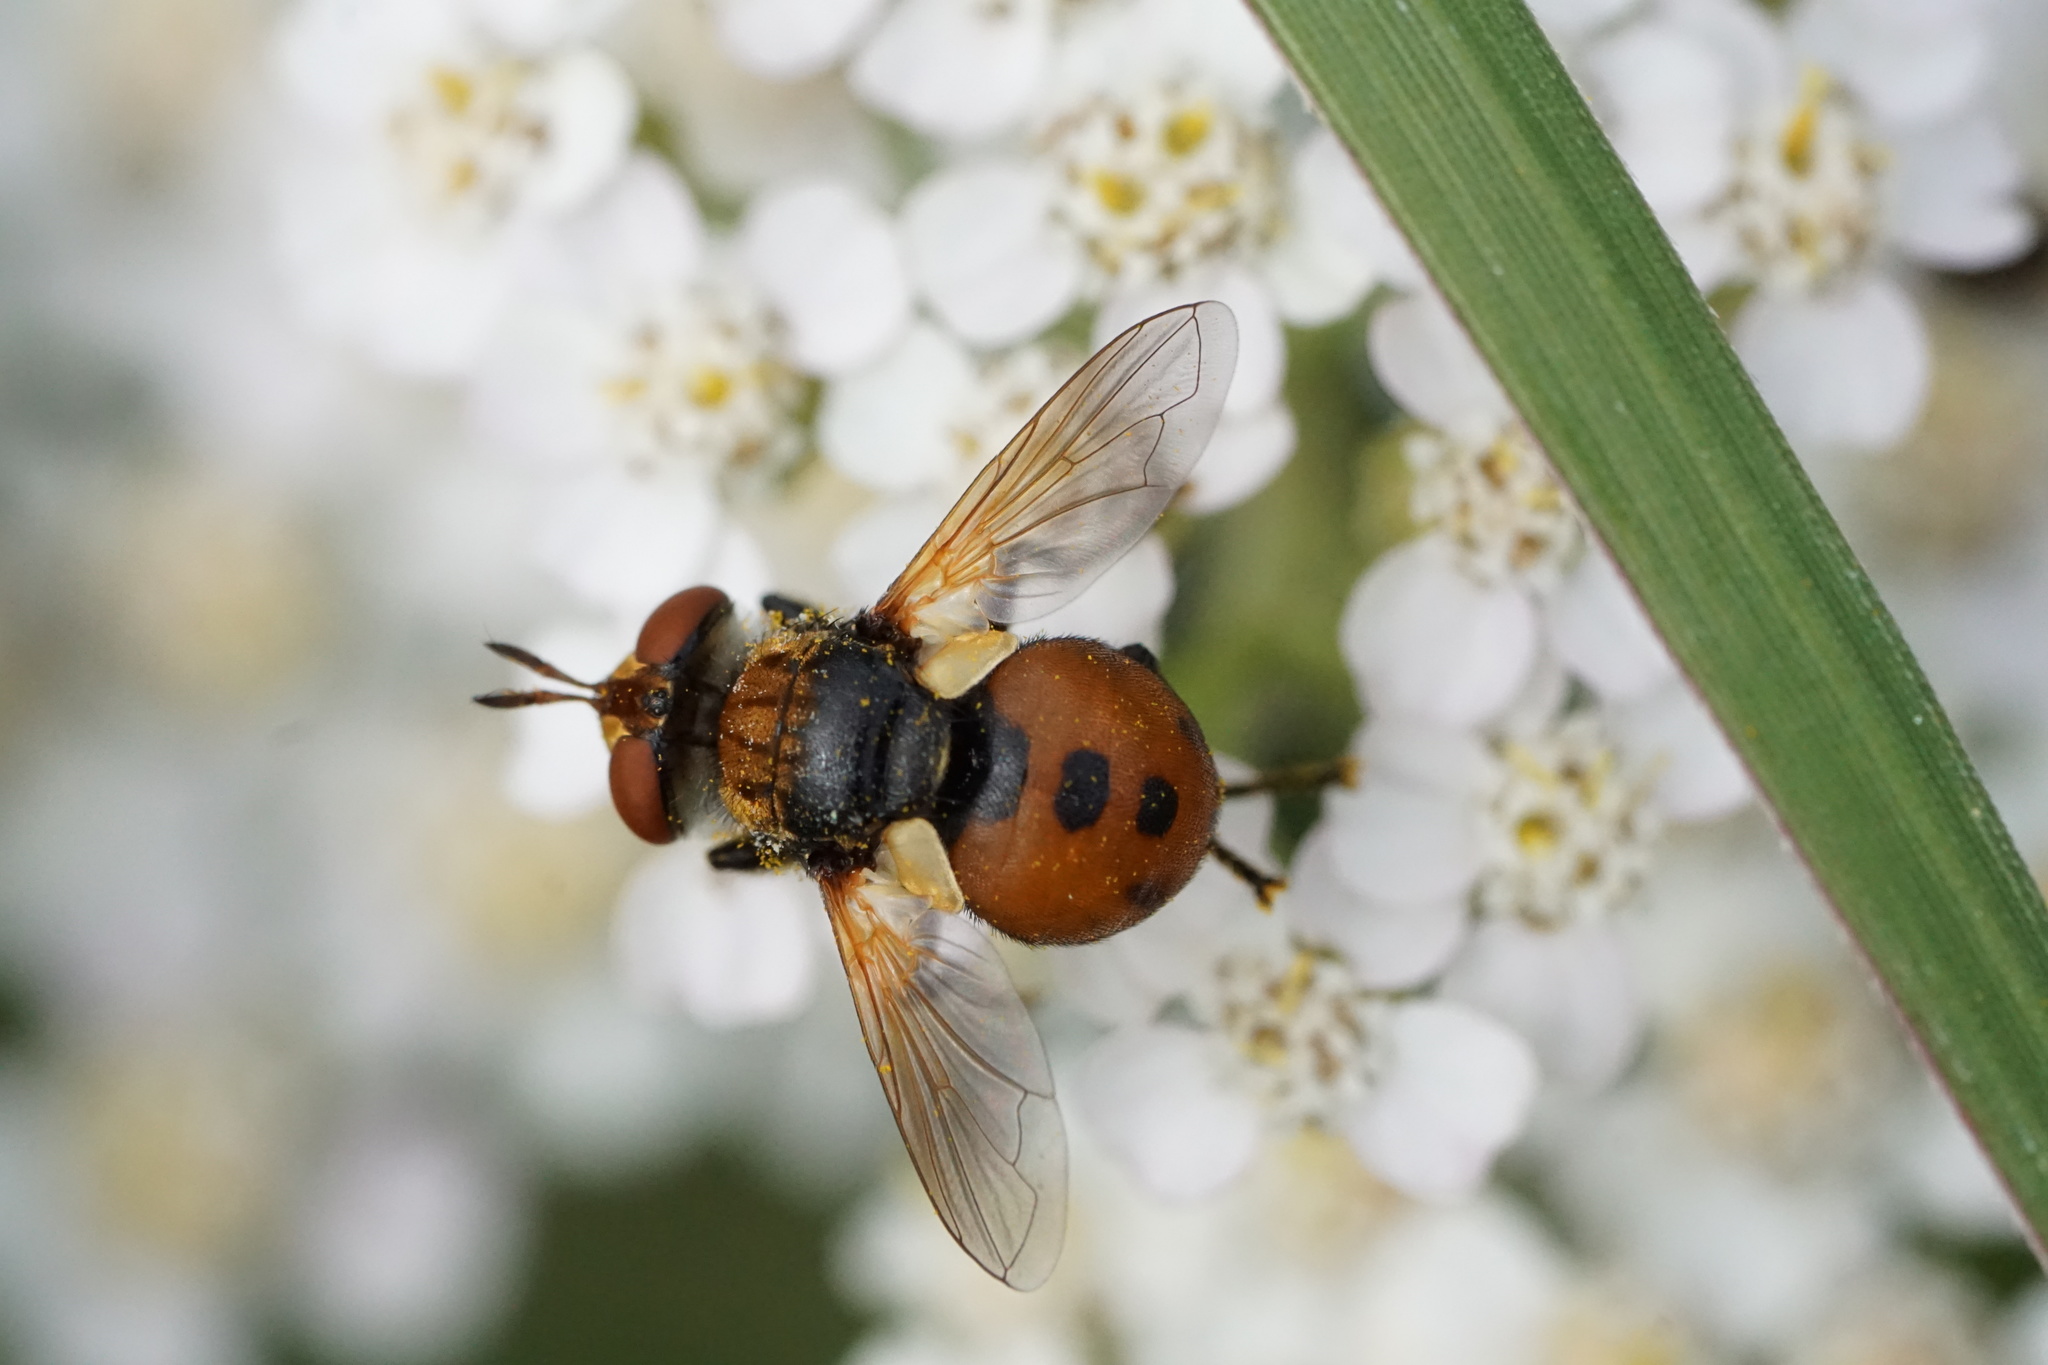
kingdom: Animalia
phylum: Arthropoda
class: Insecta
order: Diptera
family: Tachinidae
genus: Gymnosoma
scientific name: Gymnosoma
